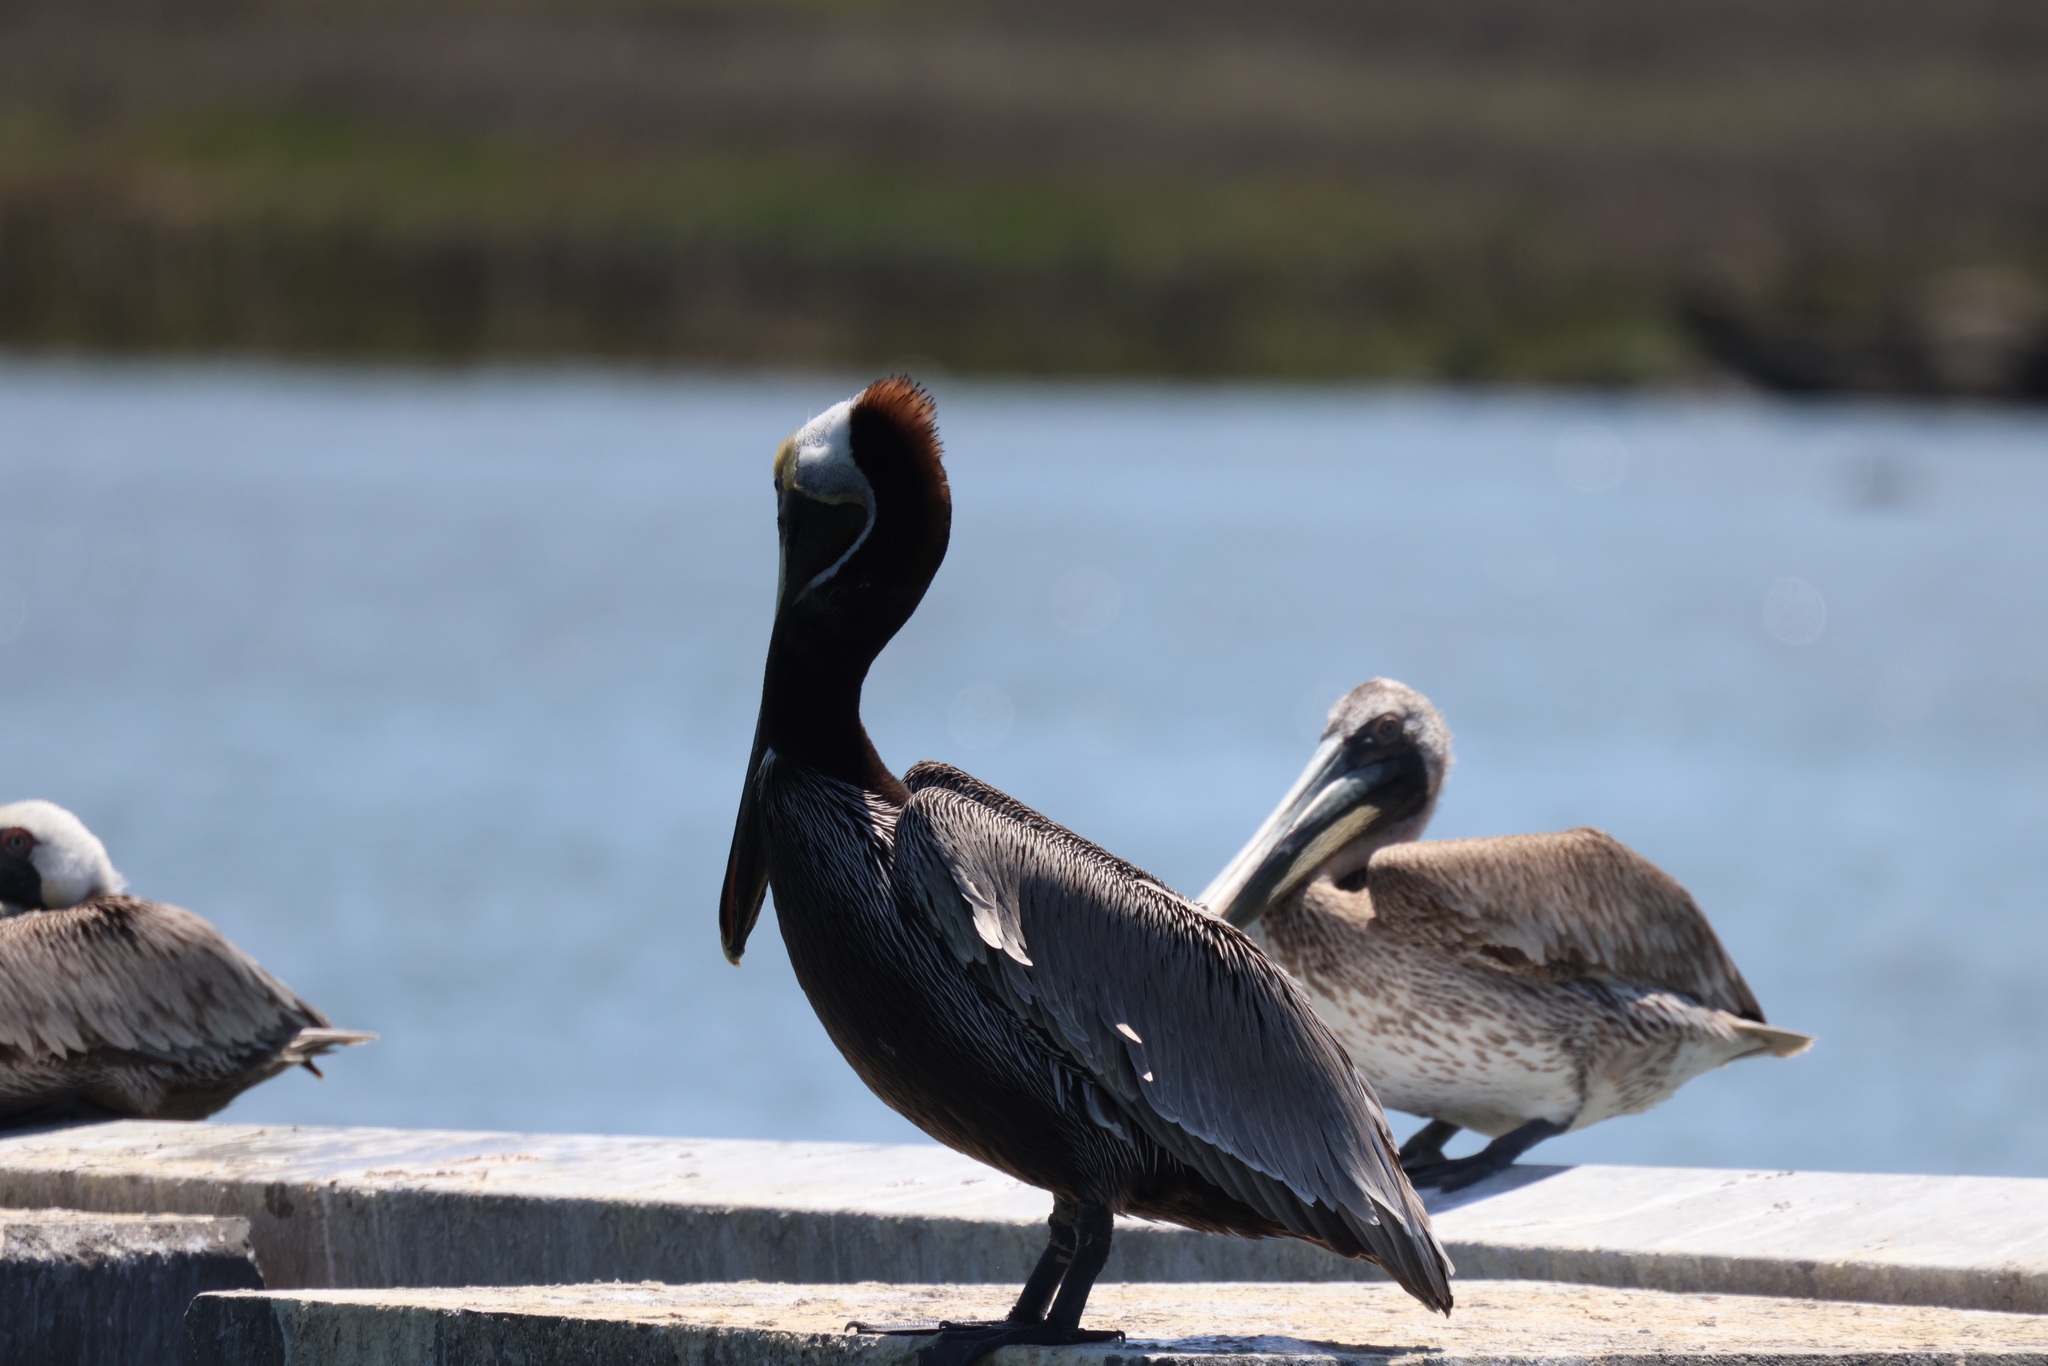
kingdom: Animalia
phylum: Chordata
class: Aves
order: Pelecaniformes
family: Pelecanidae
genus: Pelecanus
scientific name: Pelecanus occidentalis
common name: Brown pelican
